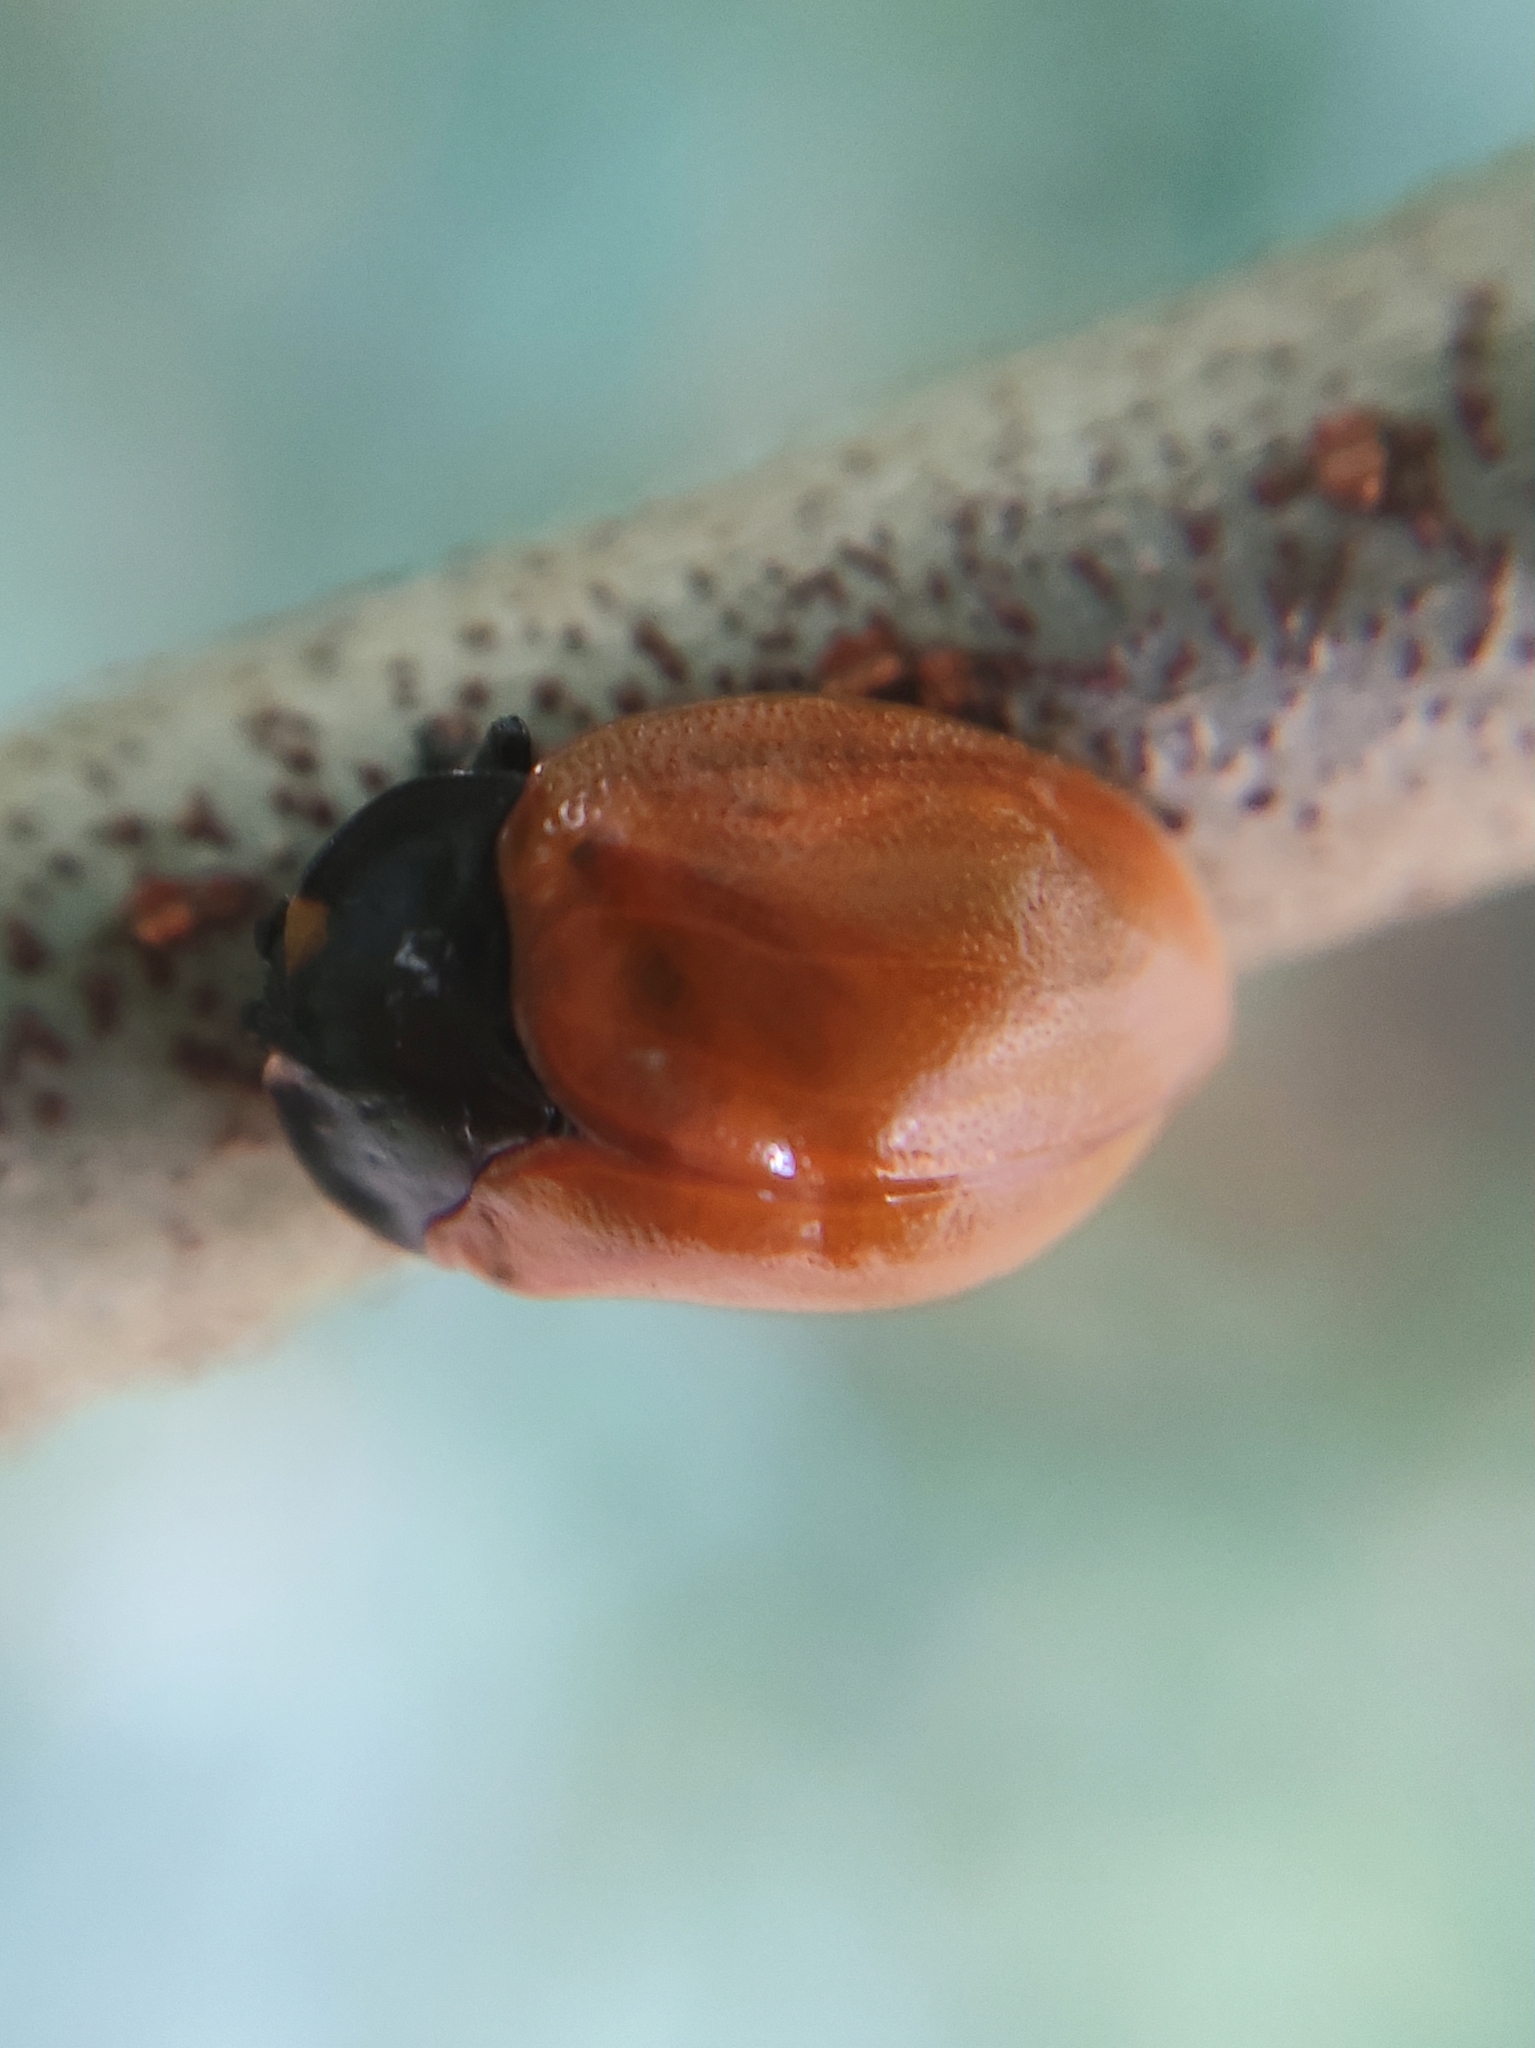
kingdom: Animalia
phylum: Arthropoda
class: Insecta
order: Coleoptera
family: Chrysomelidae
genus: Chelymorpha
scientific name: Chelymorpha cribraria
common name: Tortoise beetle
